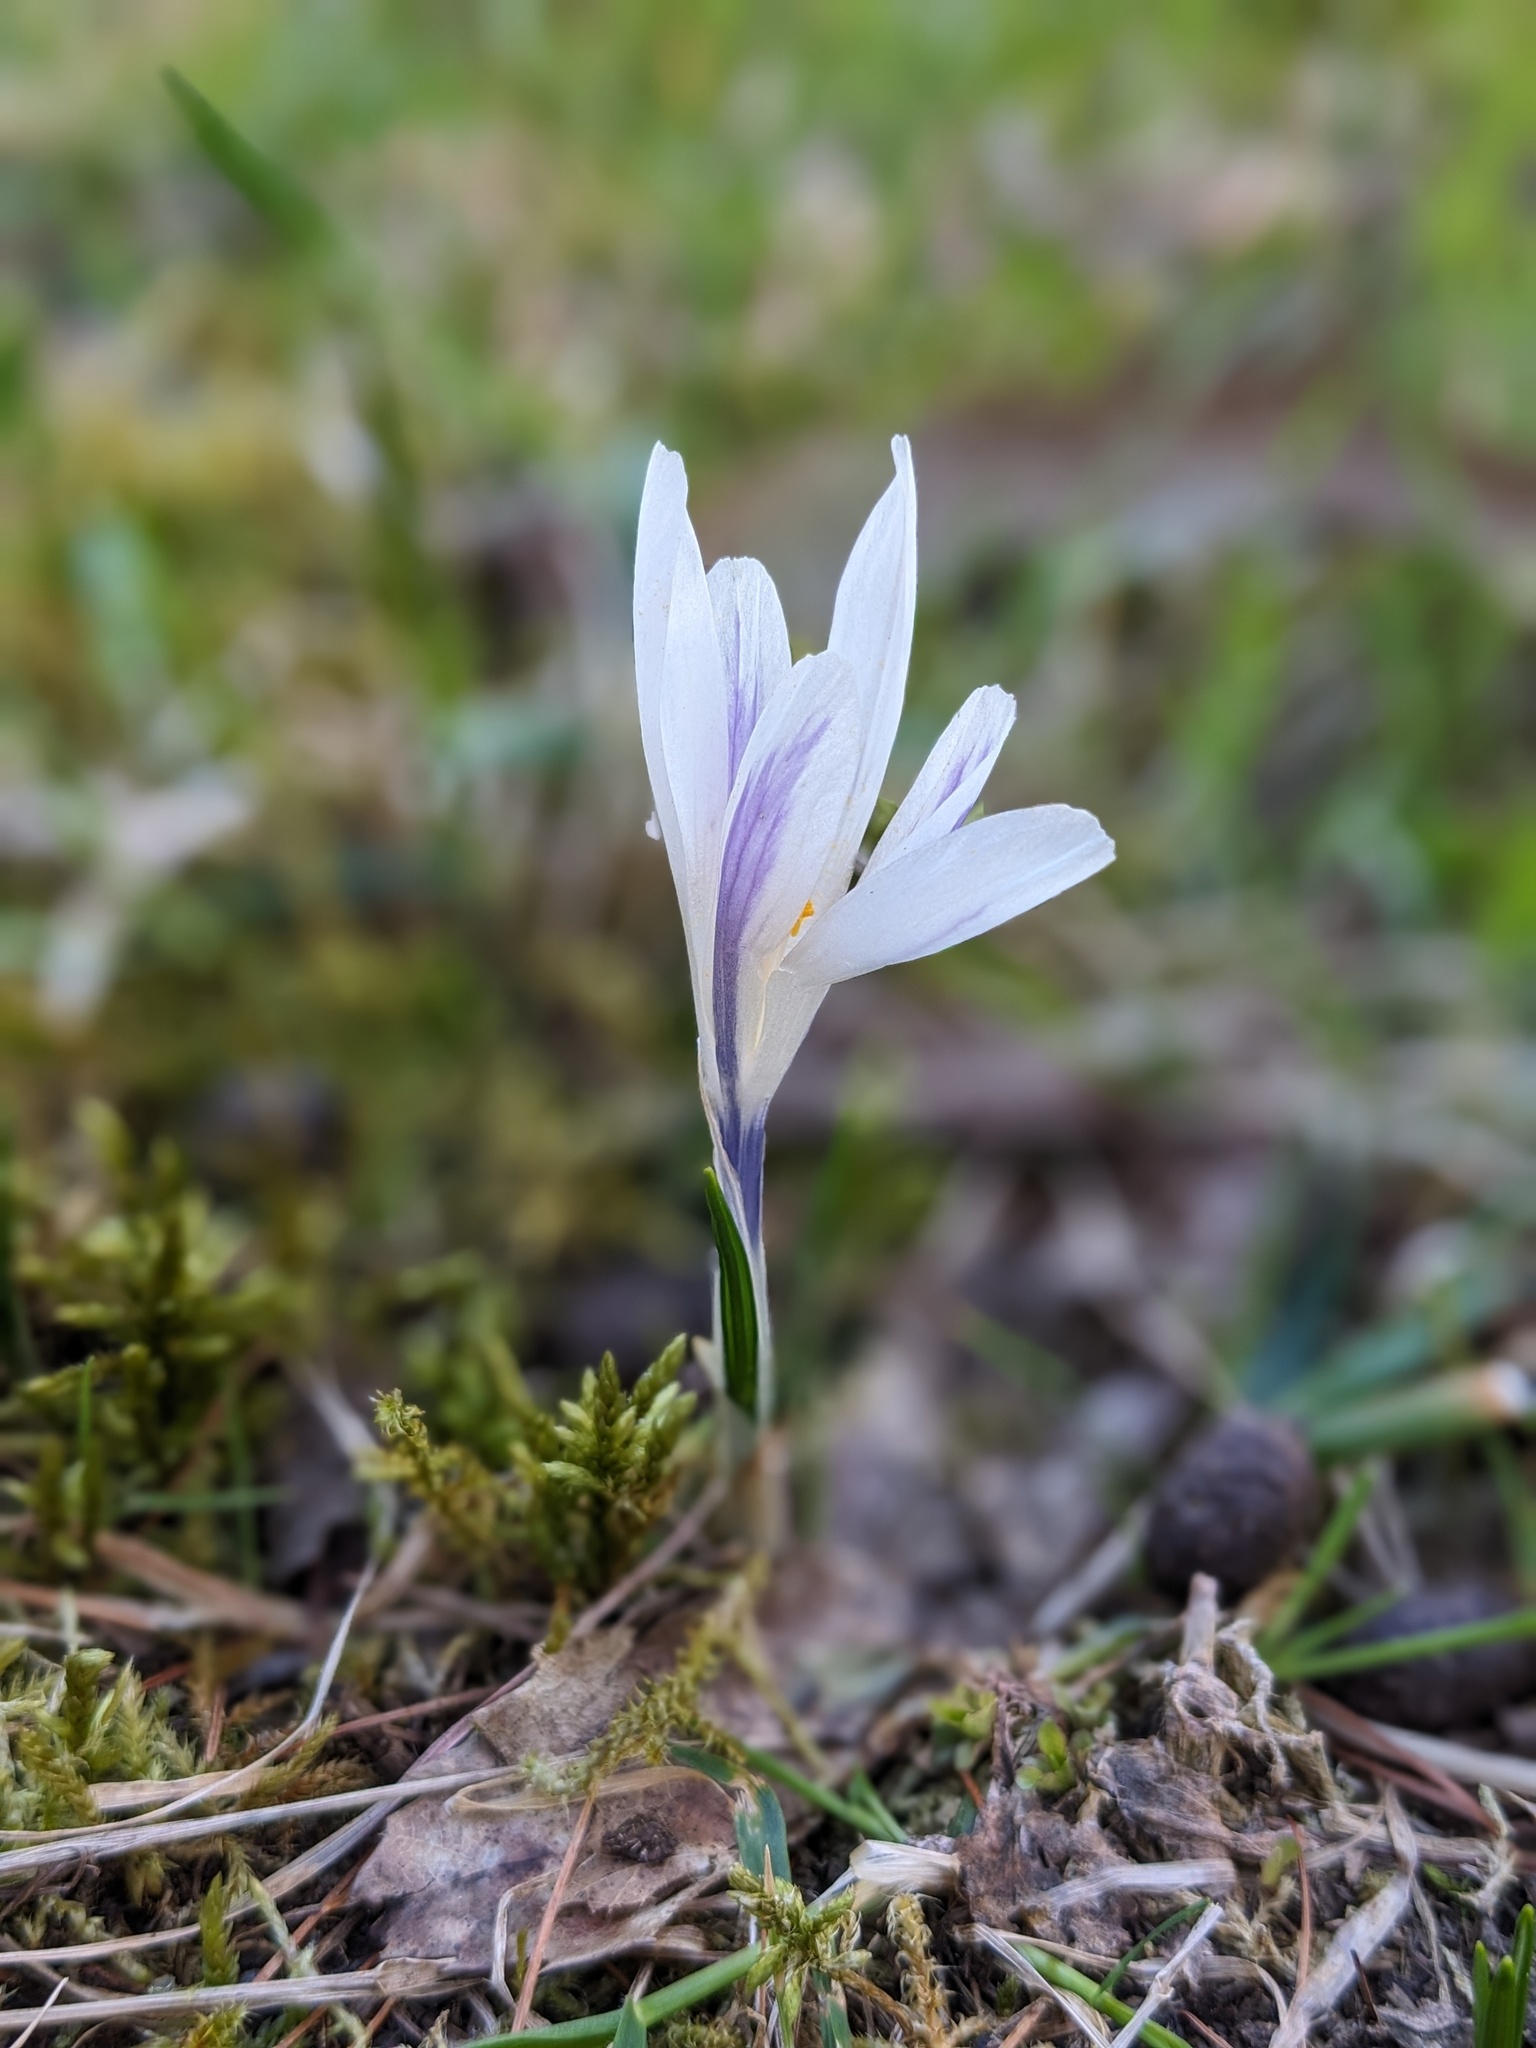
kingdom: Plantae
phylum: Tracheophyta
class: Liliopsida
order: Asparagales
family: Iridaceae
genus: Crocus
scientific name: Crocus vernus
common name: Spring crocus
